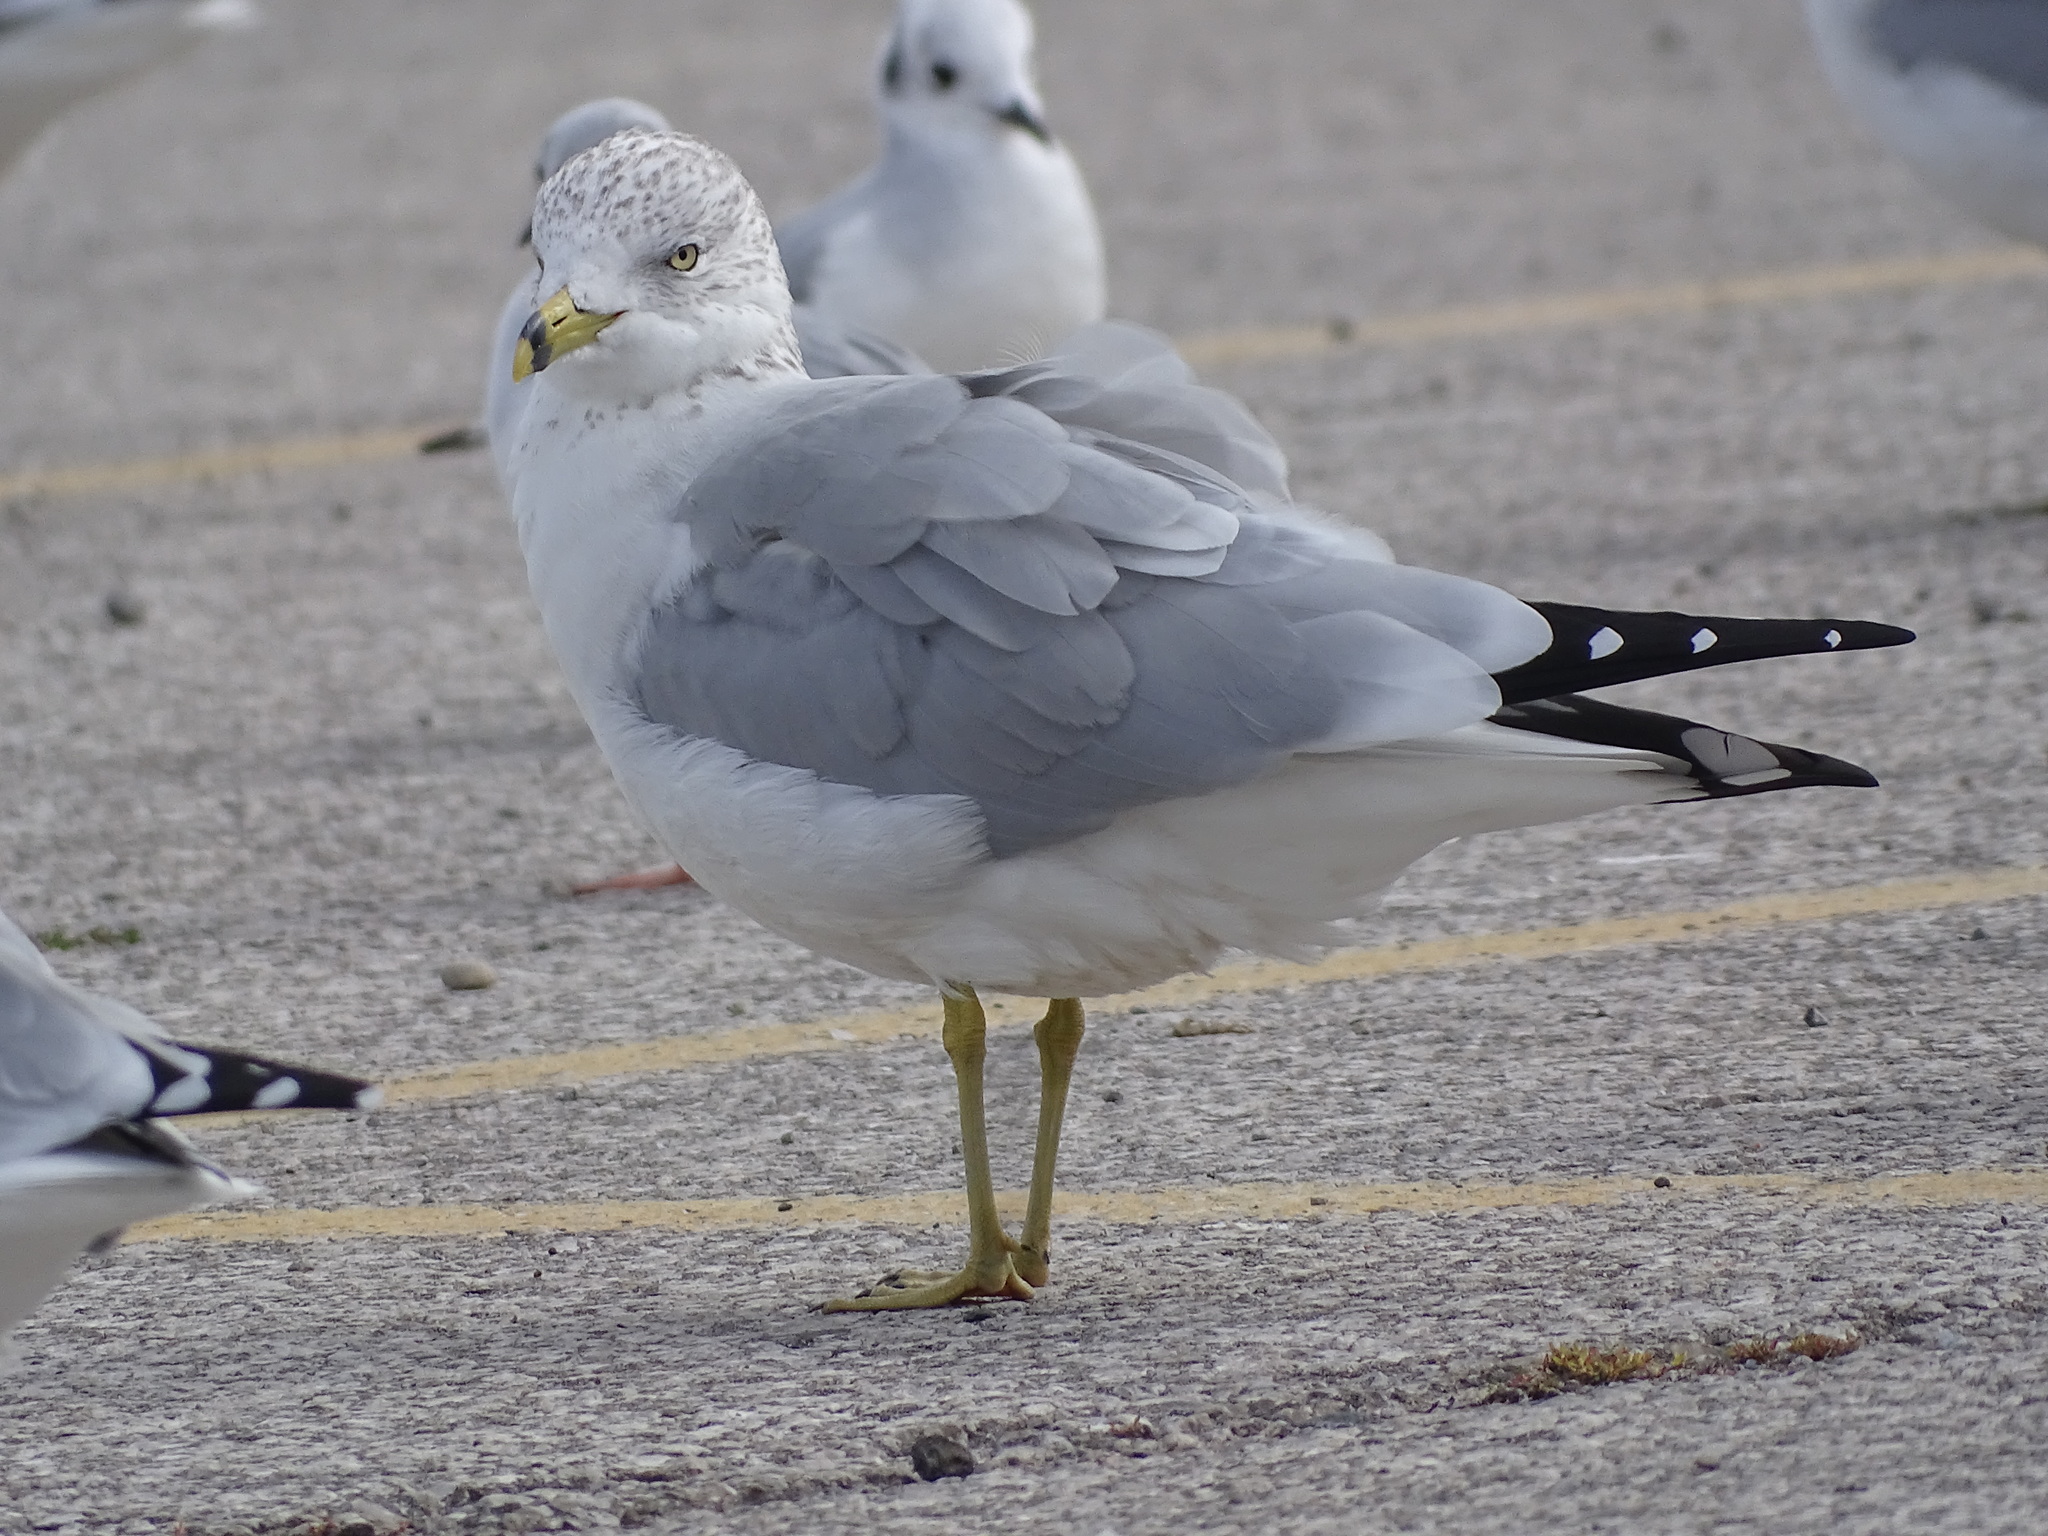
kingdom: Animalia
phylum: Chordata
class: Aves
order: Charadriiformes
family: Laridae
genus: Larus
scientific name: Larus delawarensis
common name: Ring-billed gull
